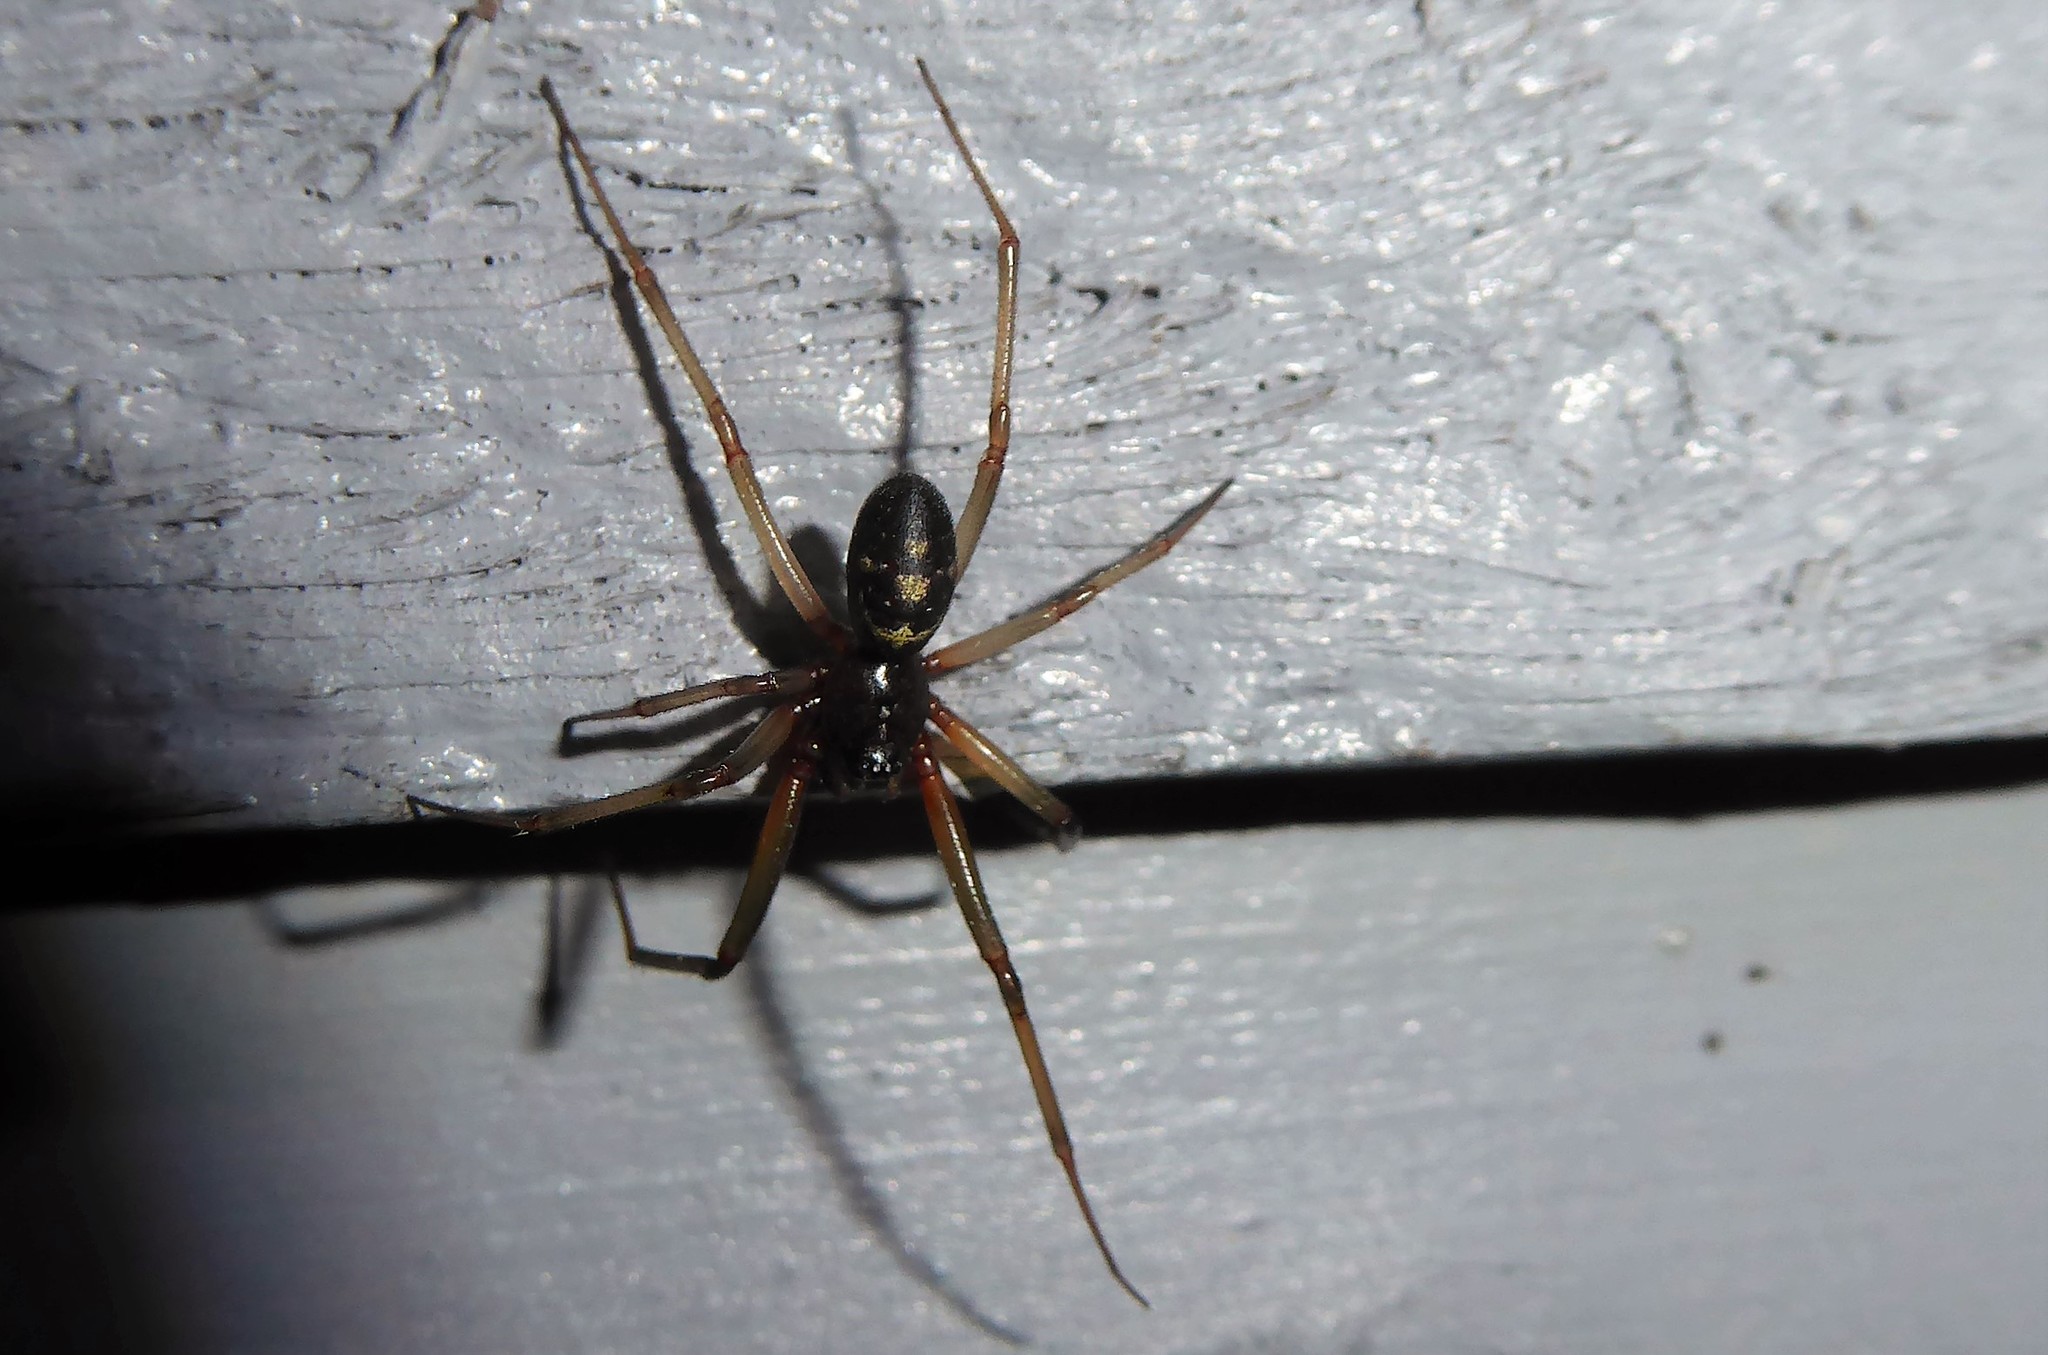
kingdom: Animalia
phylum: Arthropoda
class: Arachnida
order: Araneae
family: Theridiidae
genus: Steatoda
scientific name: Steatoda grossa
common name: False black widow
